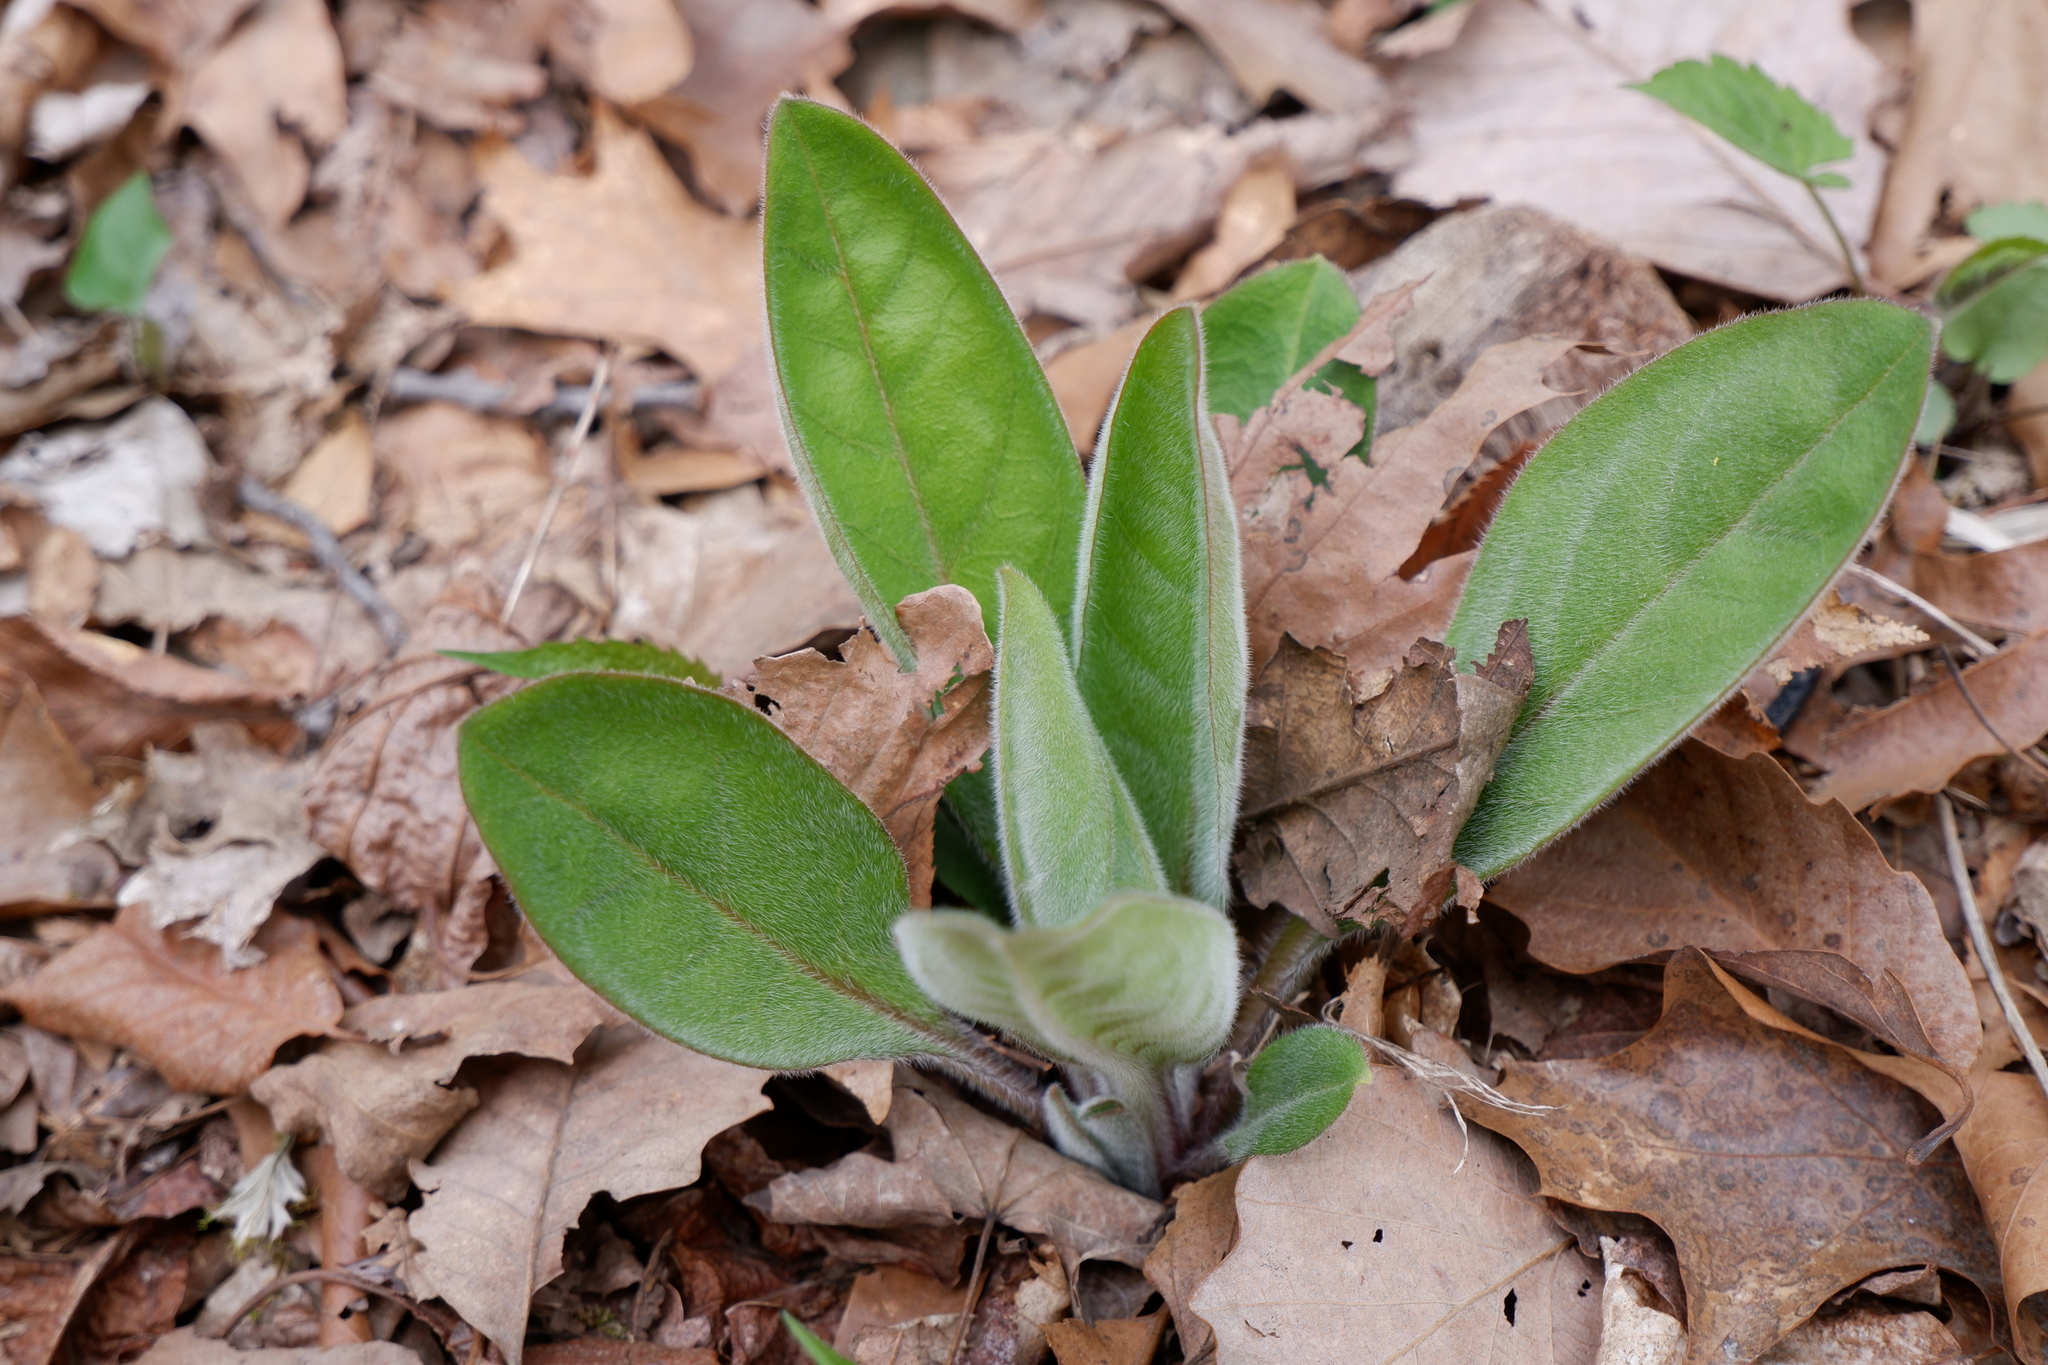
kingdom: Plantae
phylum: Tracheophyta
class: Magnoliopsida
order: Boraginales
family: Boraginaceae
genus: Andersonglossum
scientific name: Andersonglossum virginianum
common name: Wild comfrey
